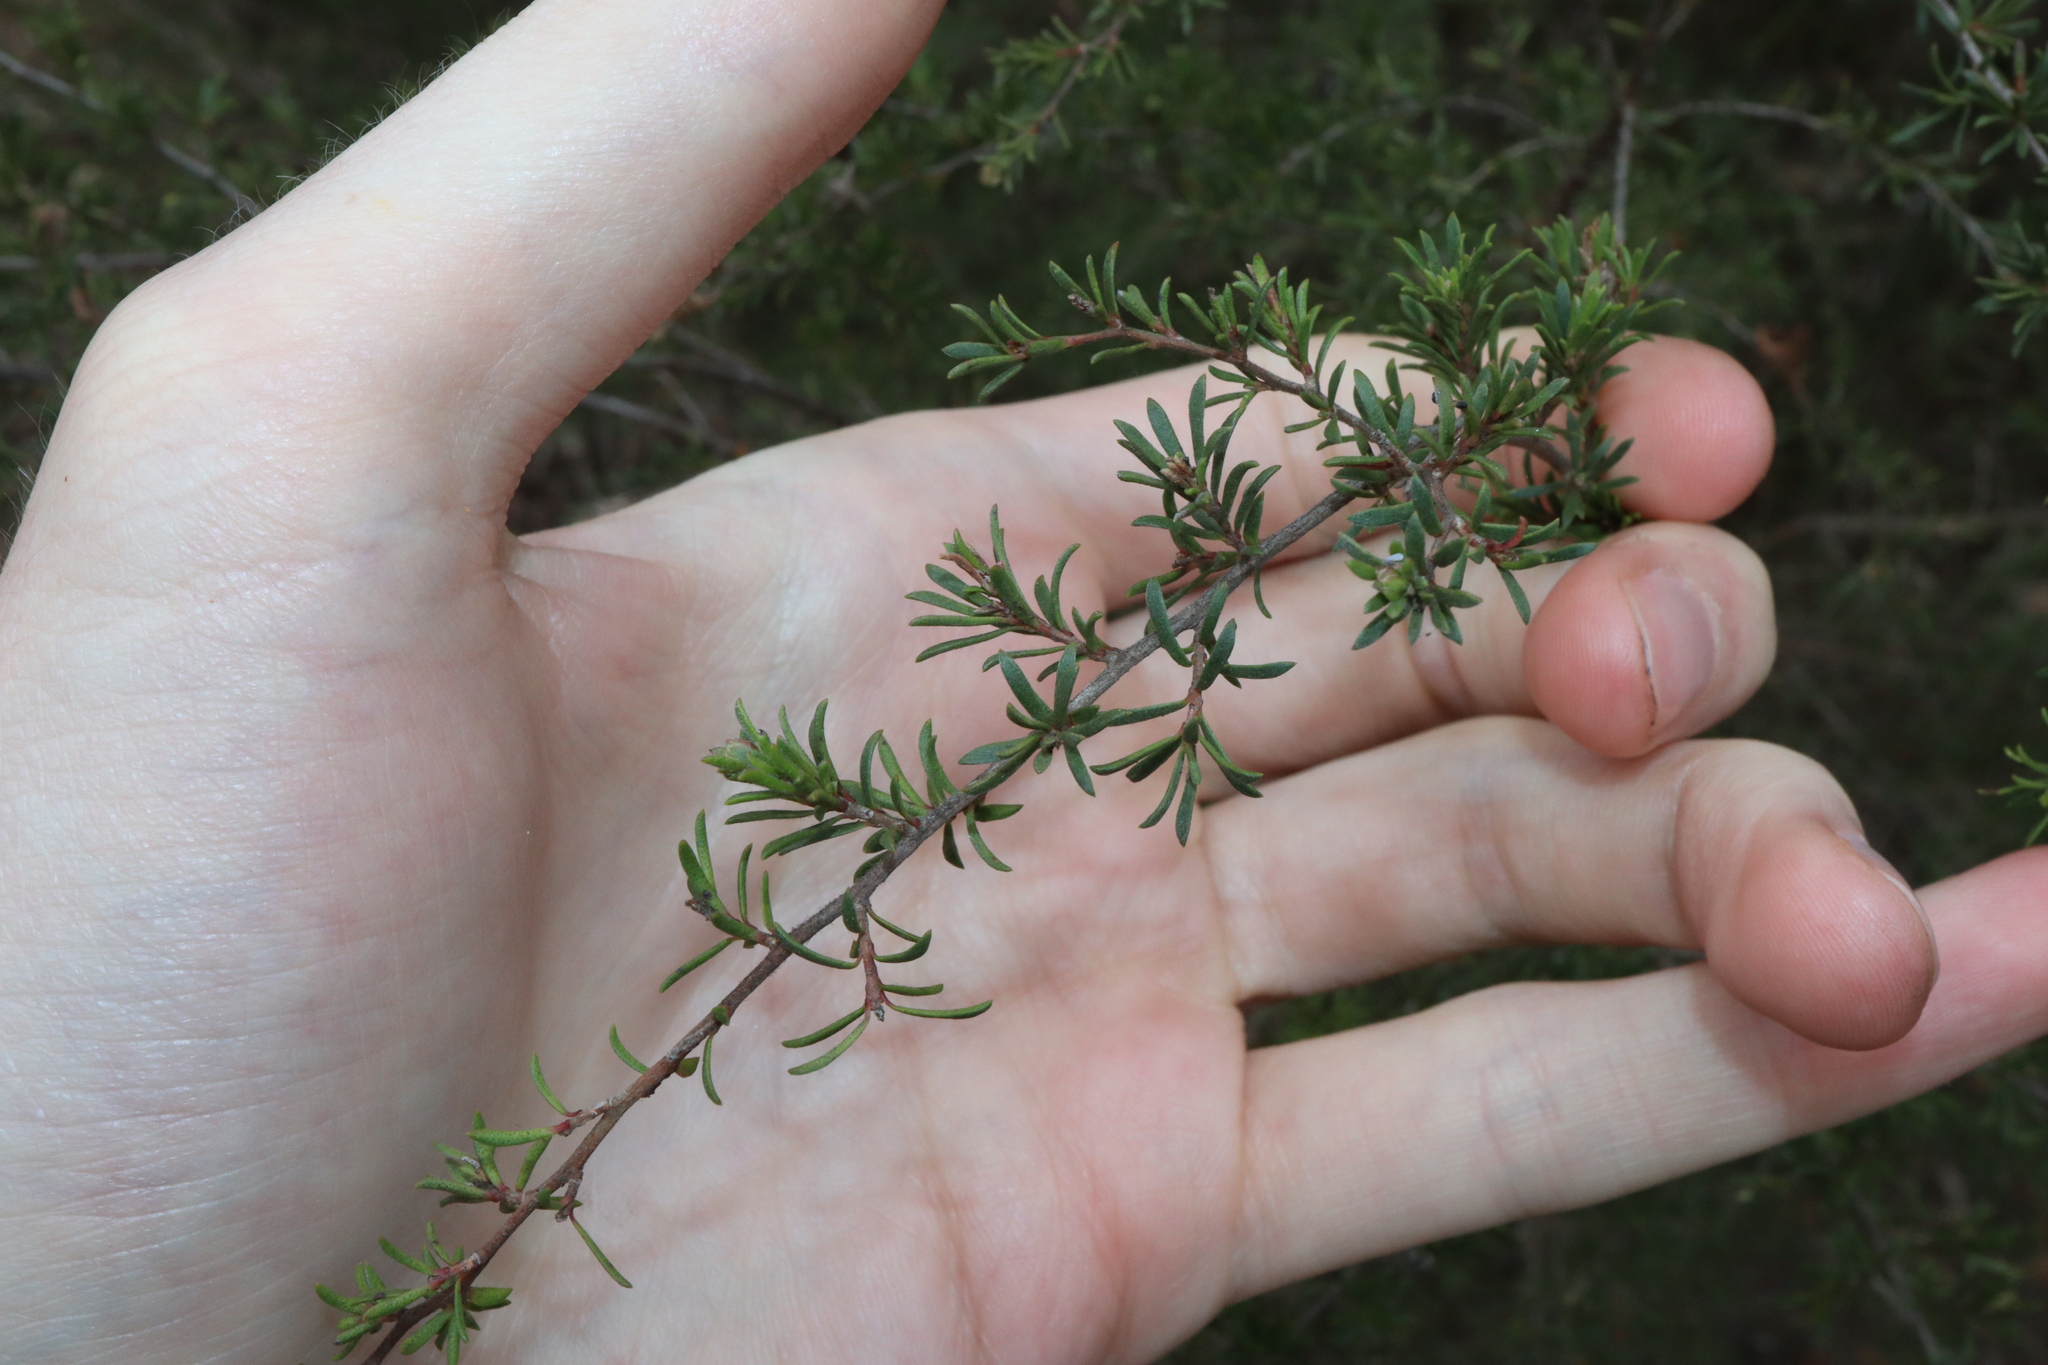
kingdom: Plantae
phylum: Tracheophyta
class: Magnoliopsida
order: Myrtales
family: Myrtaceae
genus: Kunzea
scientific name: Kunzea ambigua
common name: Tickbush
